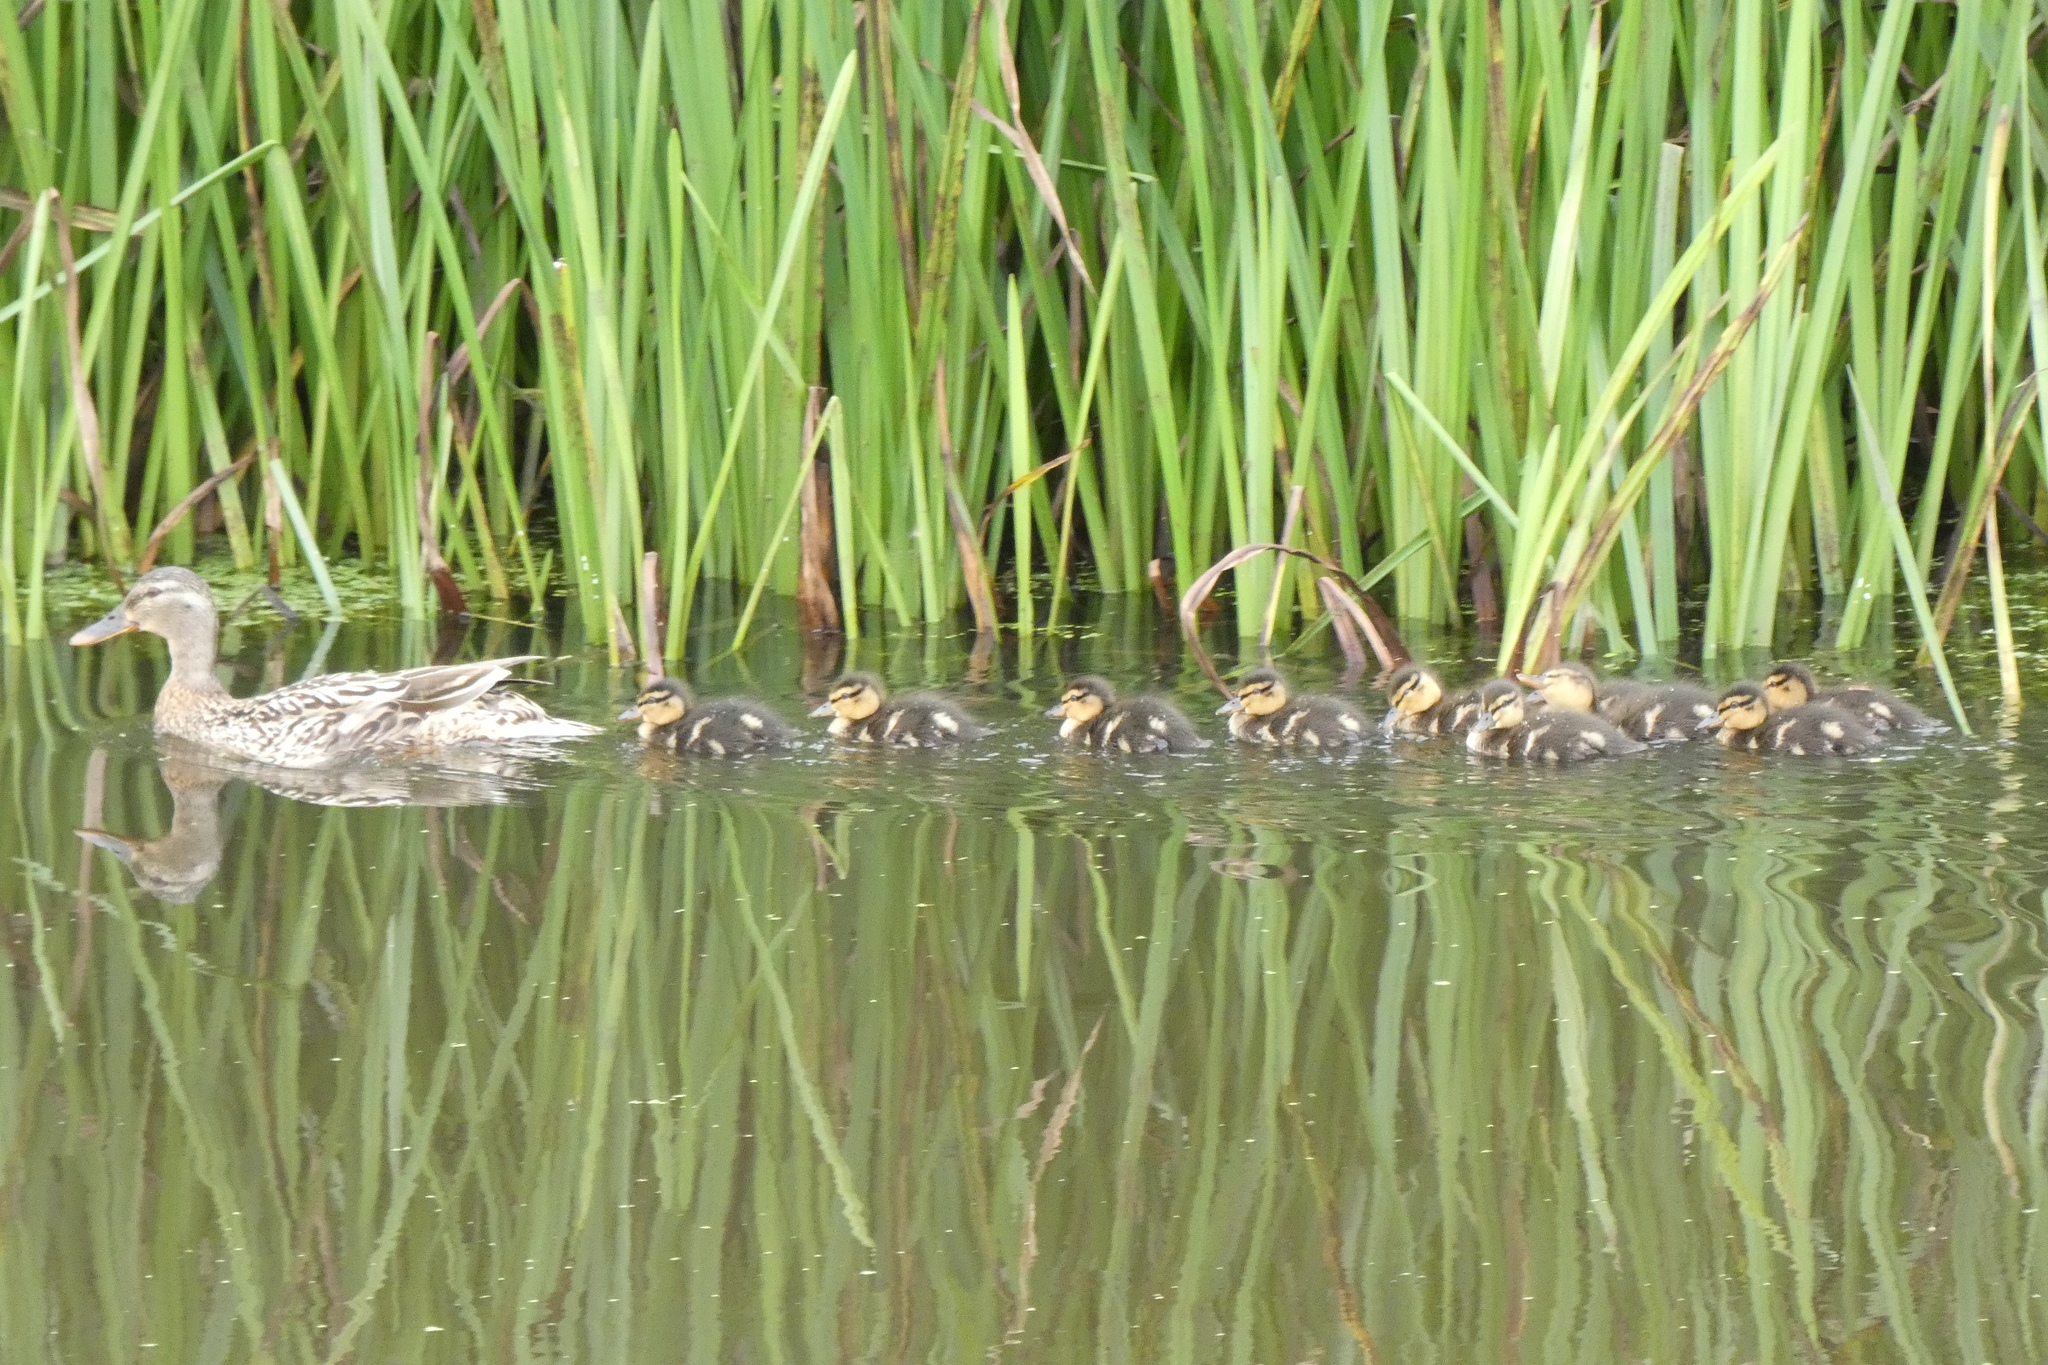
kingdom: Animalia
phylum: Chordata
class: Aves
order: Anseriformes
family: Anatidae
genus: Anas
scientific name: Anas platyrhynchos
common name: Mallard
